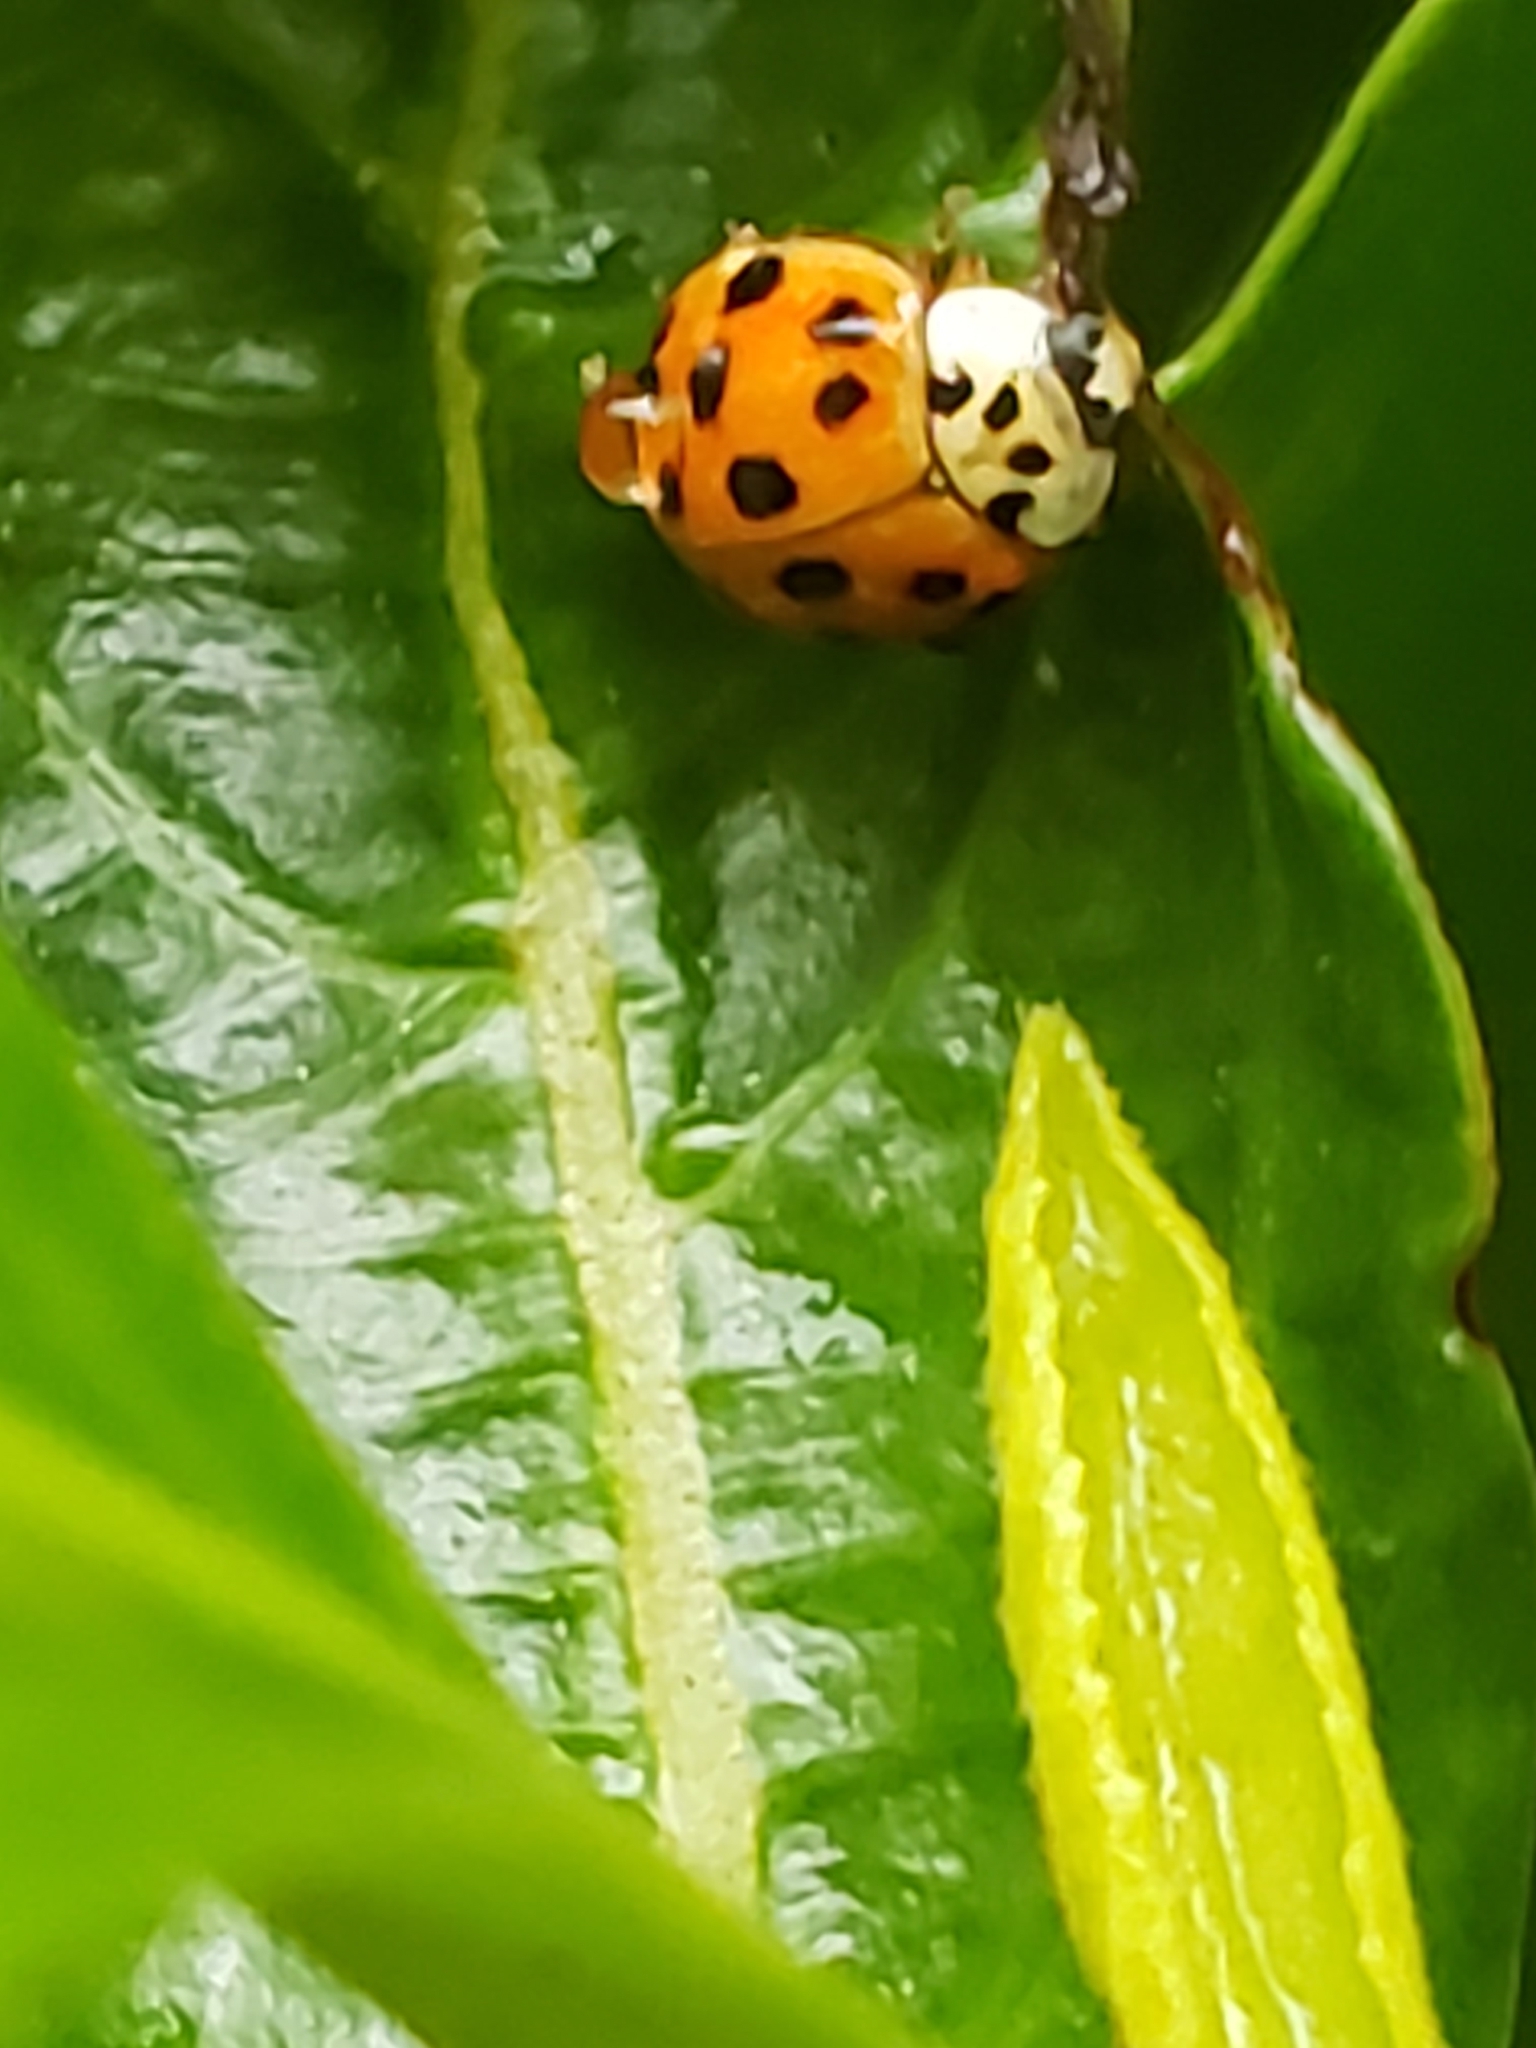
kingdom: Animalia
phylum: Arthropoda
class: Insecta
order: Coleoptera
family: Coccinellidae
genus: Harmonia
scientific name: Harmonia axyridis
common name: Harlequin ladybird
